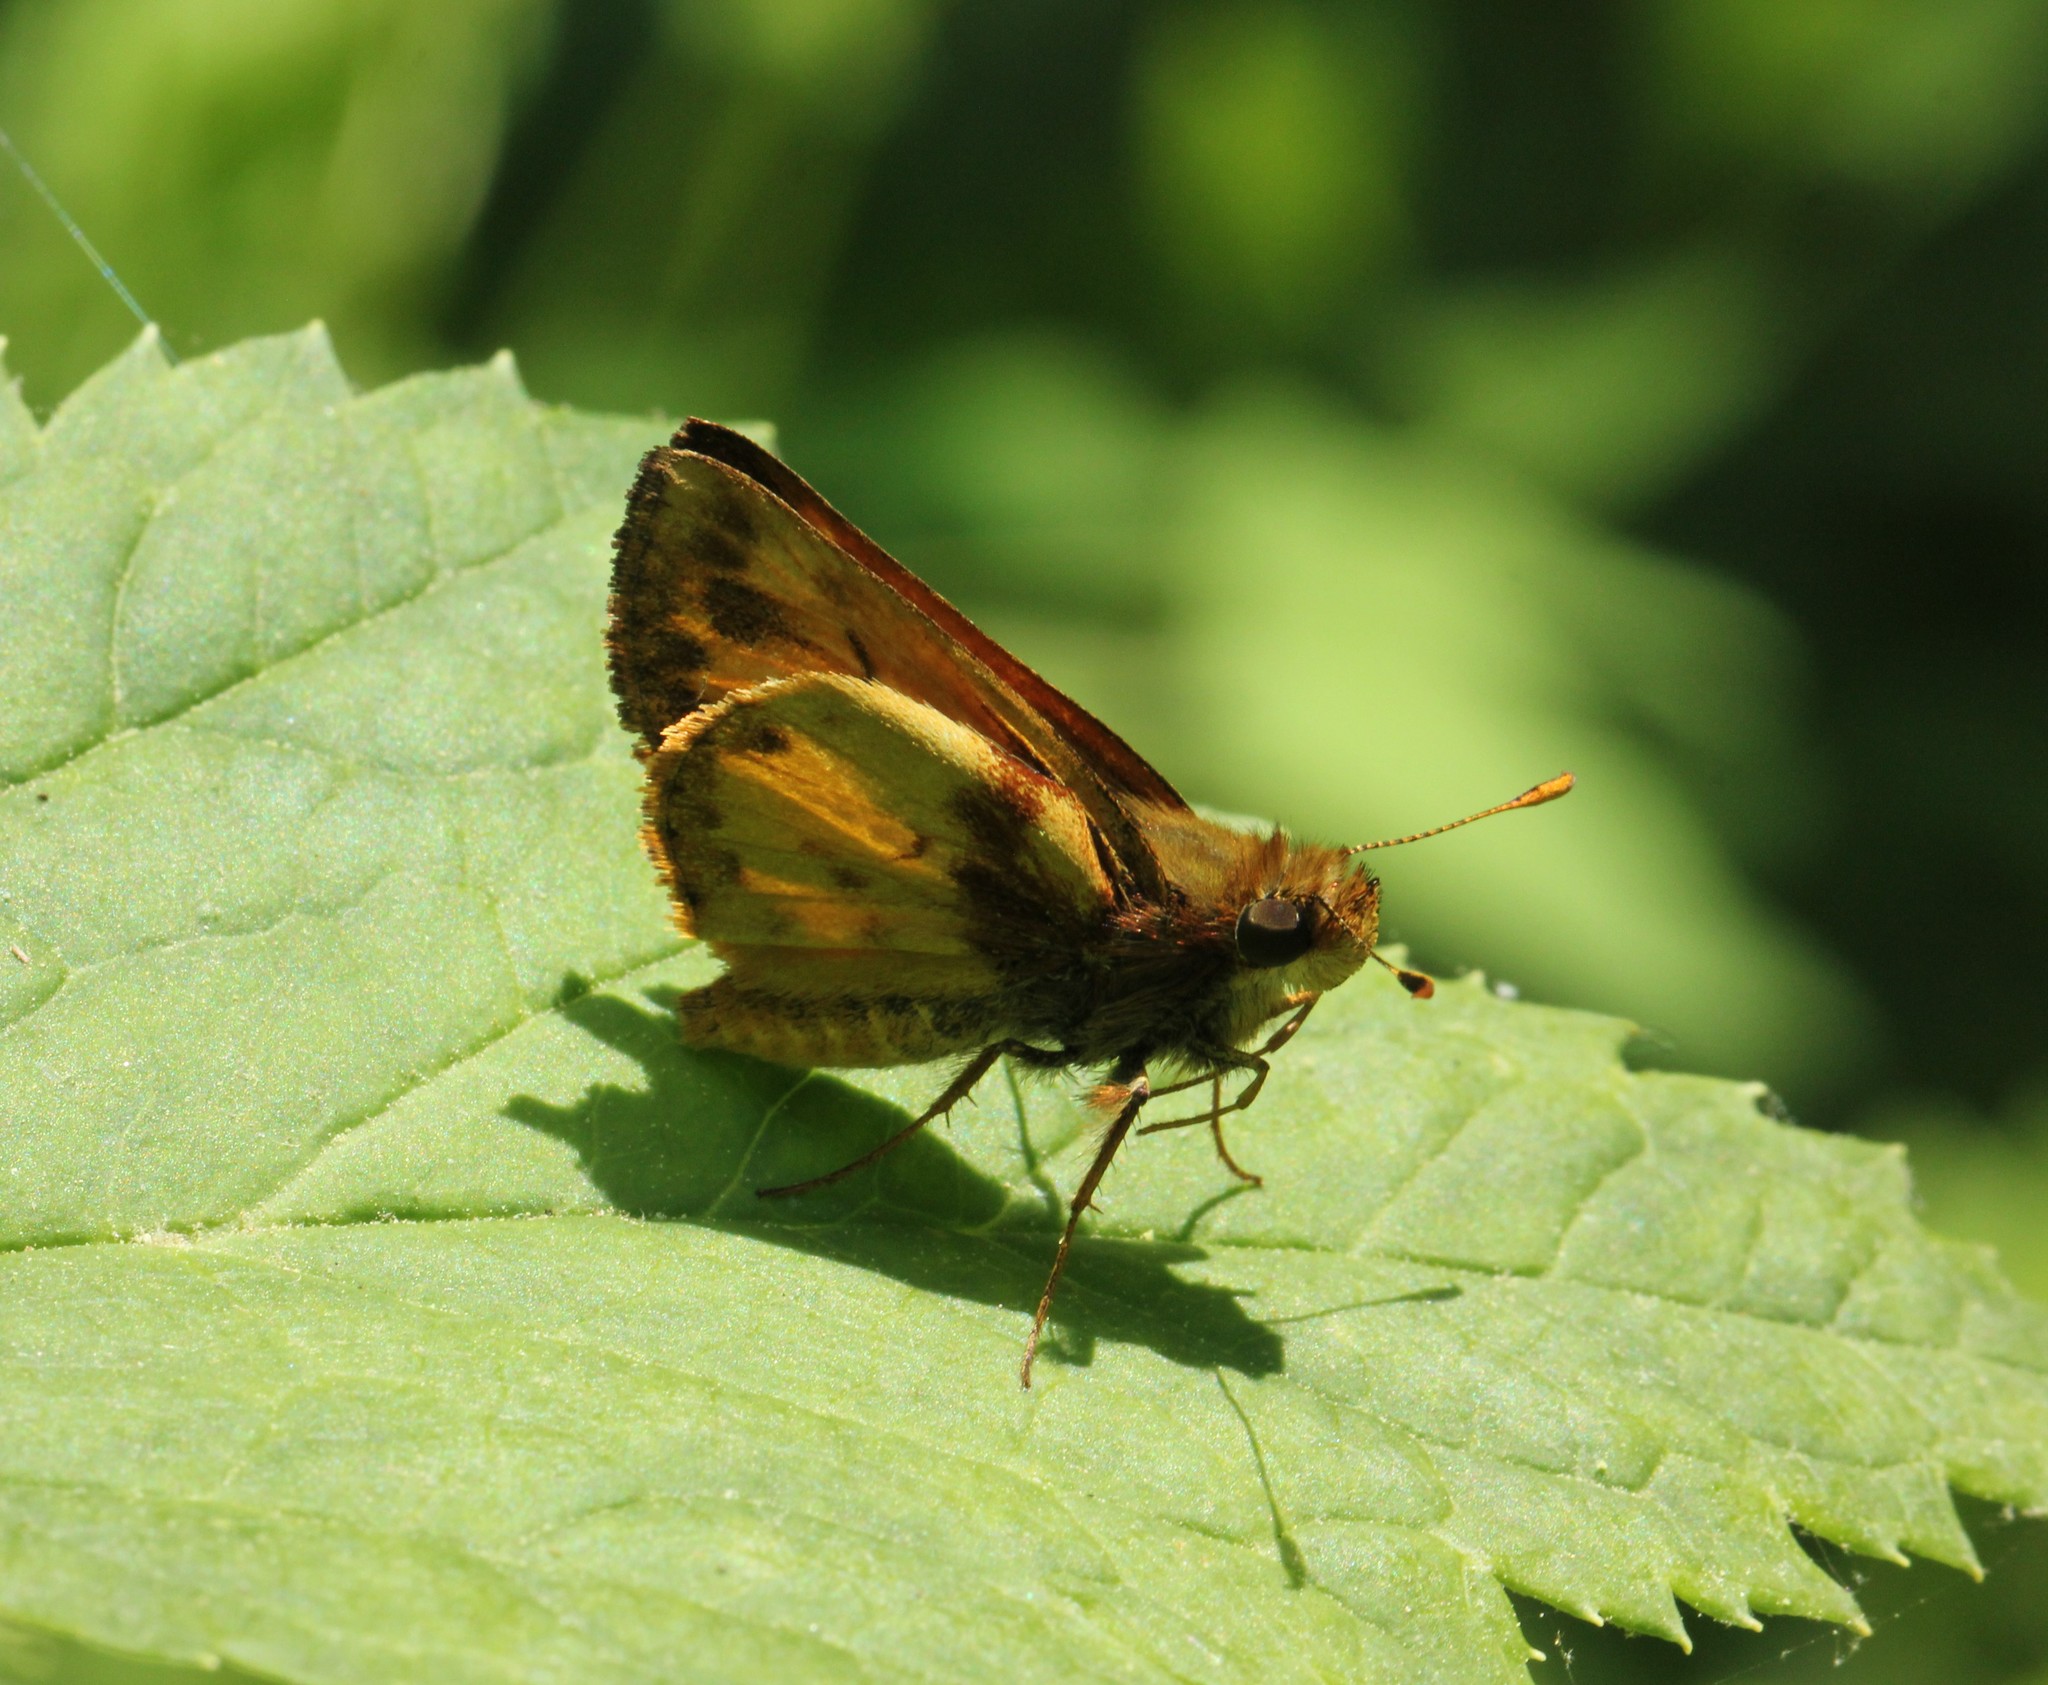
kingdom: Animalia
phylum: Arthropoda
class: Insecta
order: Lepidoptera
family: Hesperiidae
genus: Lon
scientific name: Lon zabulon
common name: Zabulon skipper
